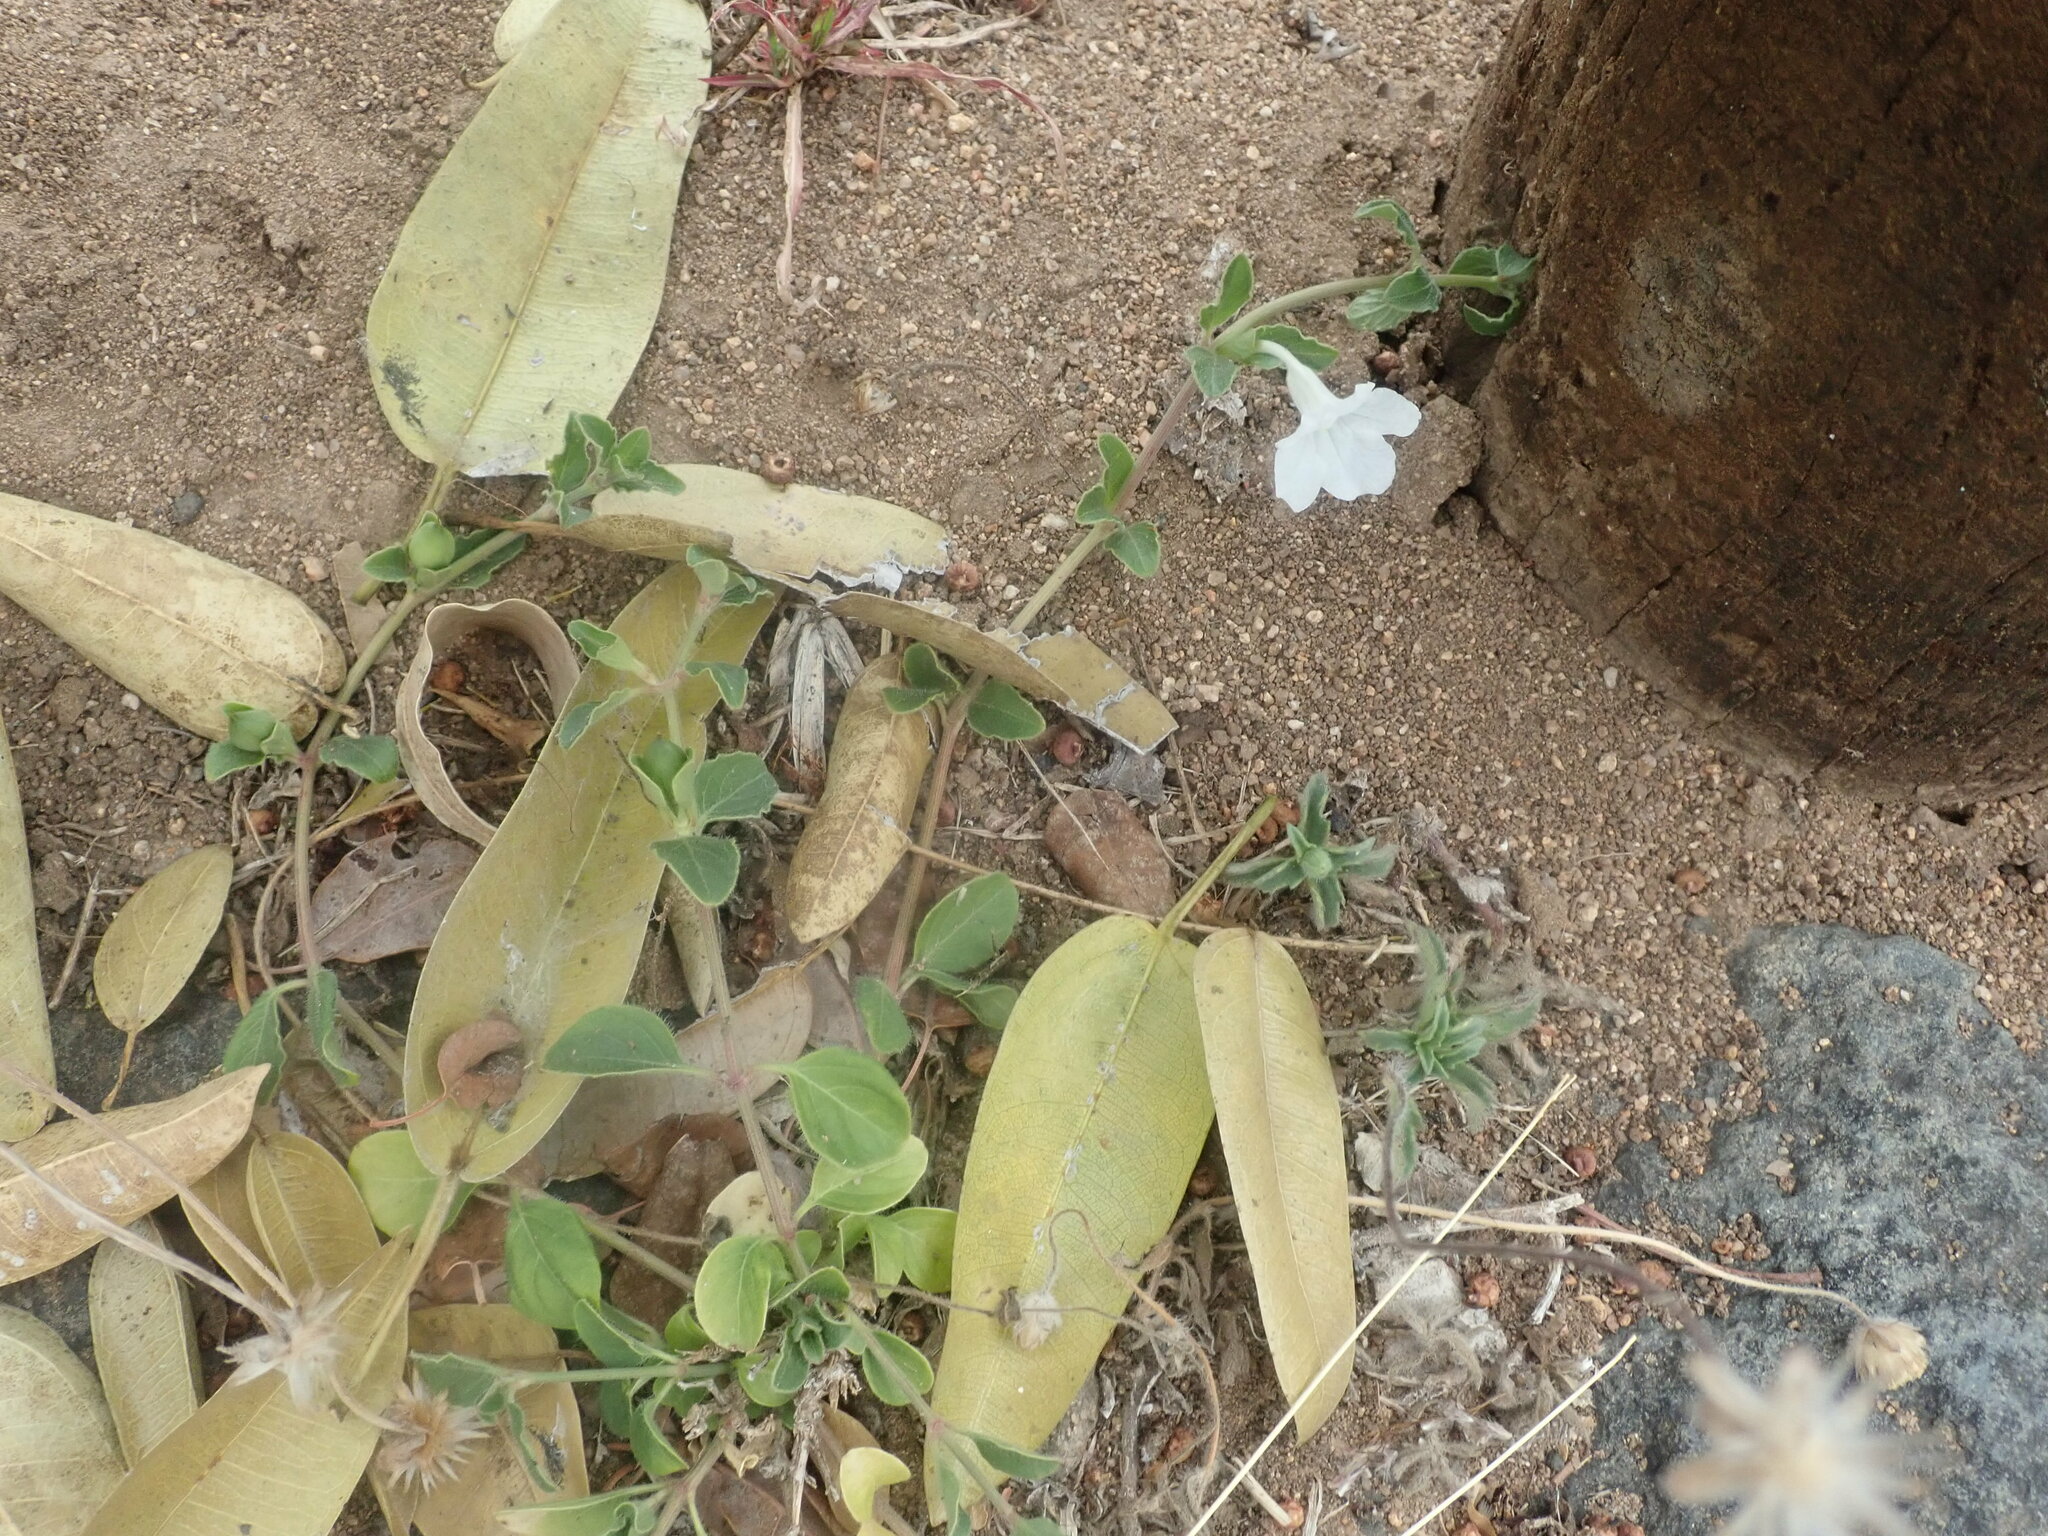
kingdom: Plantae
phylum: Tracheophyta
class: Magnoliopsida
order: Lamiales
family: Acanthaceae
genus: Ruellia
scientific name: Ruellia patula
